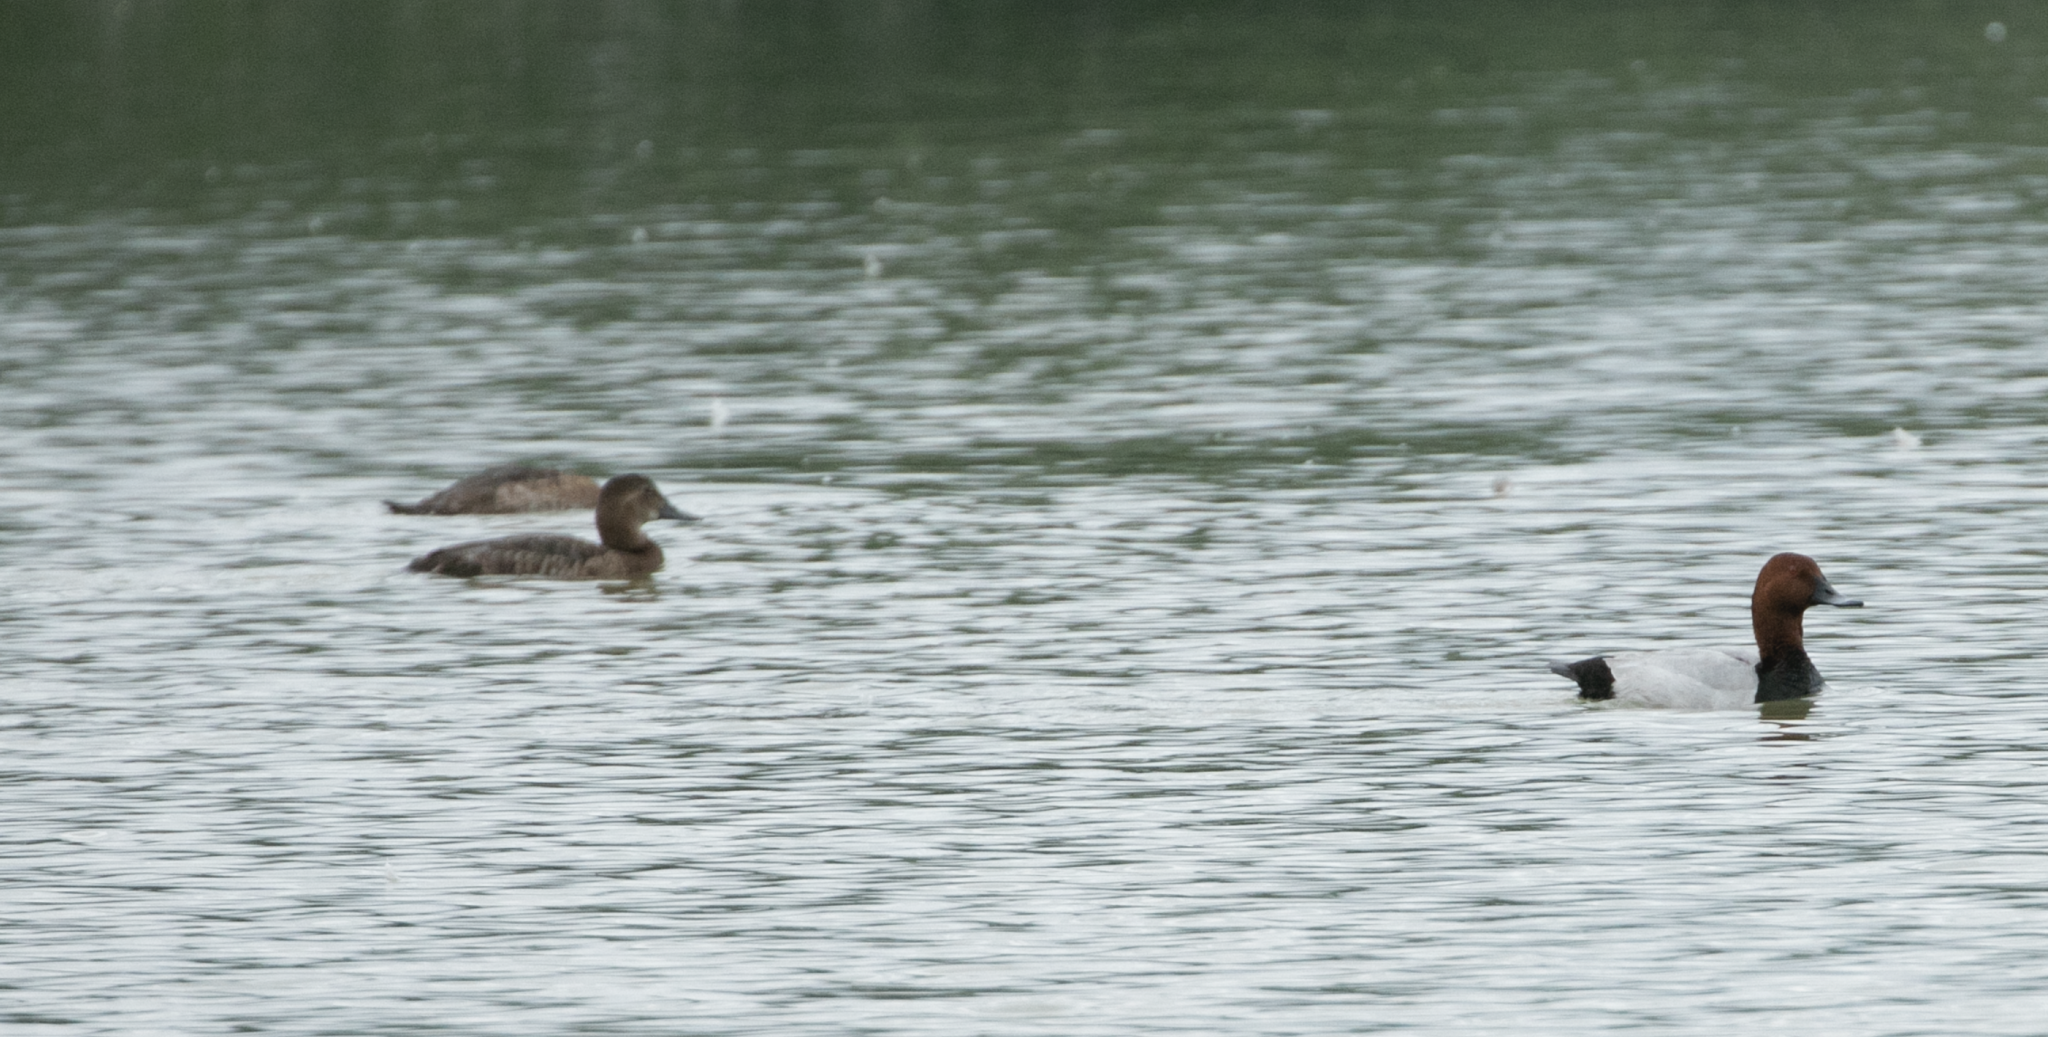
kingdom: Animalia
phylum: Chordata
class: Aves
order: Anseriformes
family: Anatidae
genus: Aythya
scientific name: Aythya ferina
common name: Common pochard
